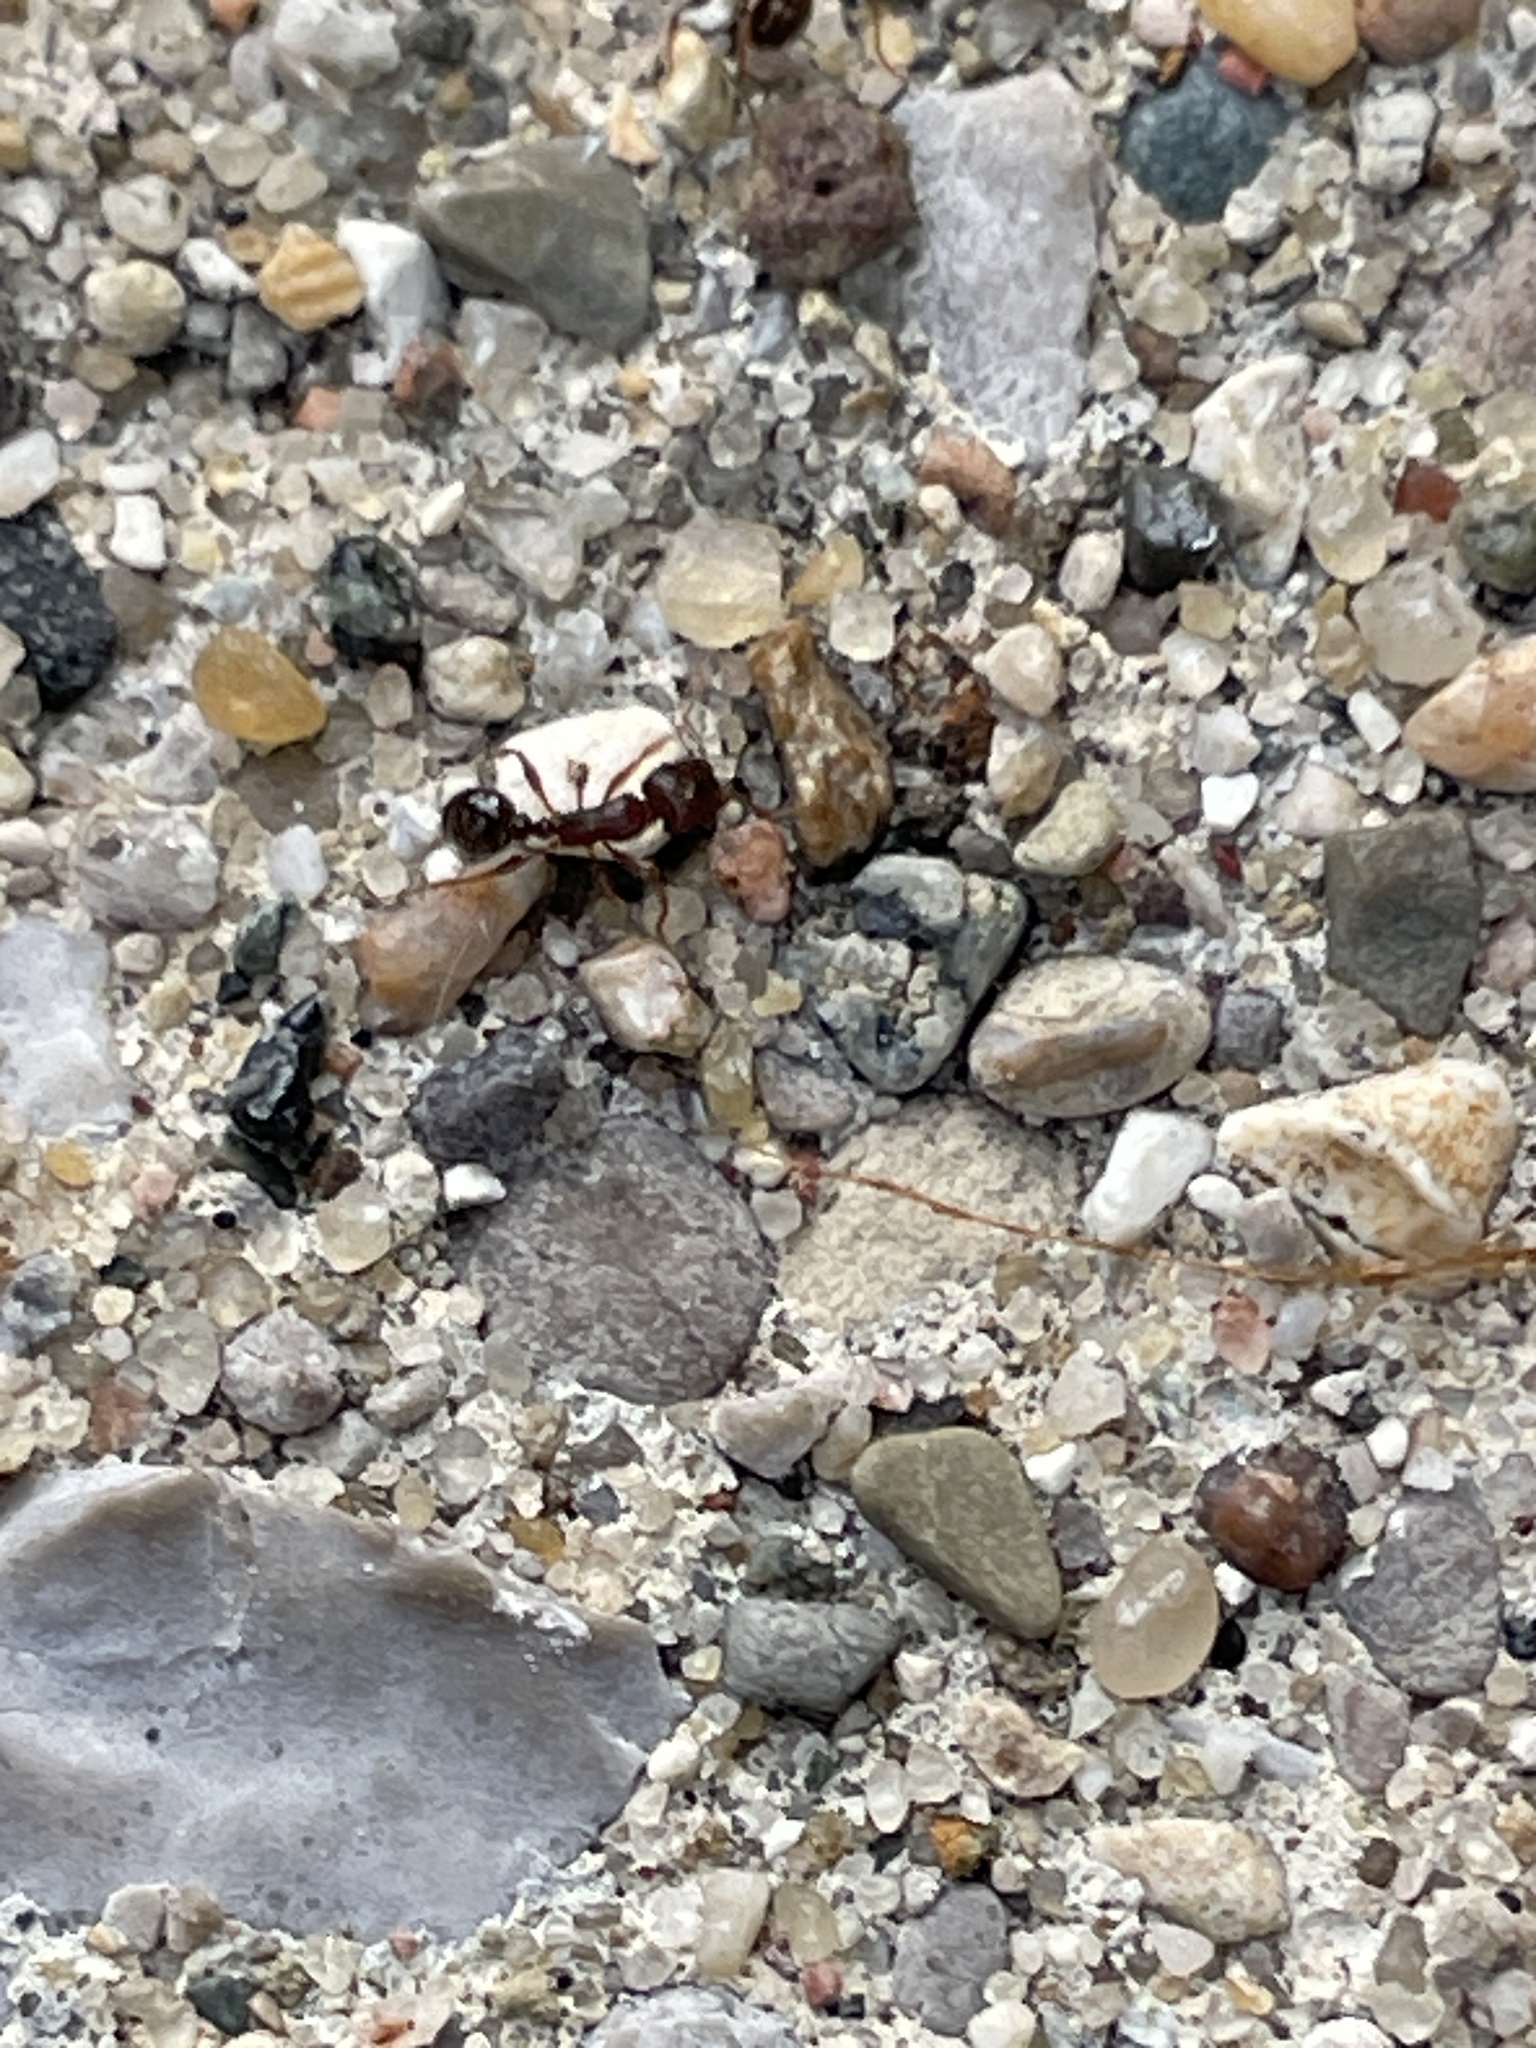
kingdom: Animalia
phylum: Arthropoda
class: Insecta
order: Hymenoptera
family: Formicidae
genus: Tetramorium
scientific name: Tetramorium immigrans
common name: Pavement ant
